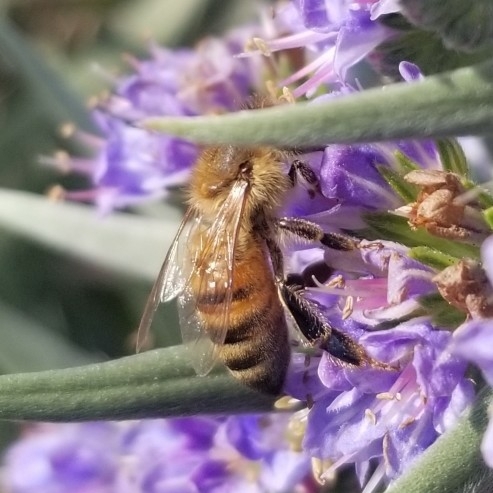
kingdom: Animalia
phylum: Arthropoda
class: Insecta
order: Hymenoptera
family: Apidae
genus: Apis
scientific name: Apis mellifera
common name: Honey bee
